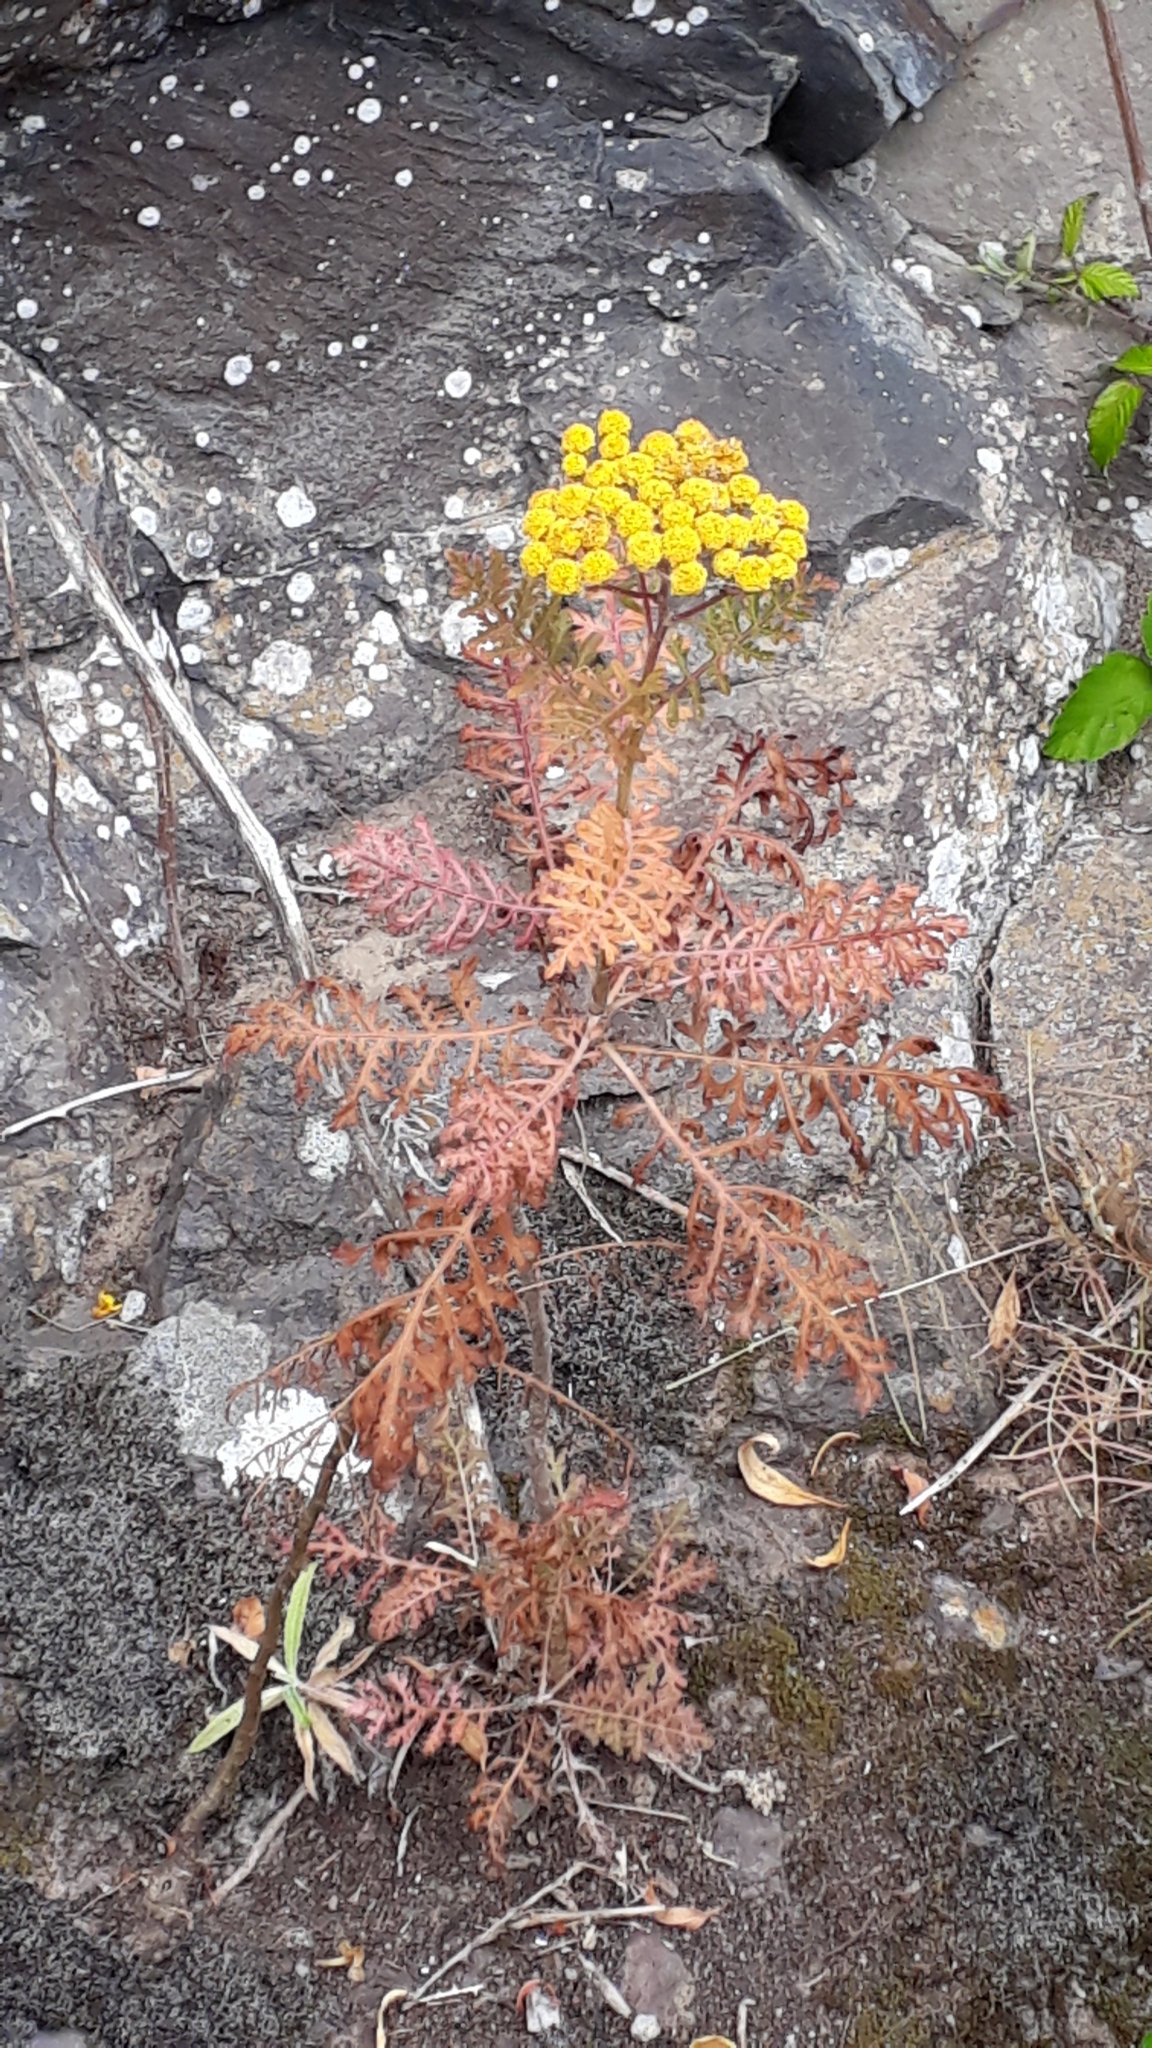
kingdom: Plantae
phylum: Tracheophyta
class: Magnoliopsida
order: Asterales
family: Asteraceae
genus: Gonospermum
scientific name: Gonospermum fruticosum
